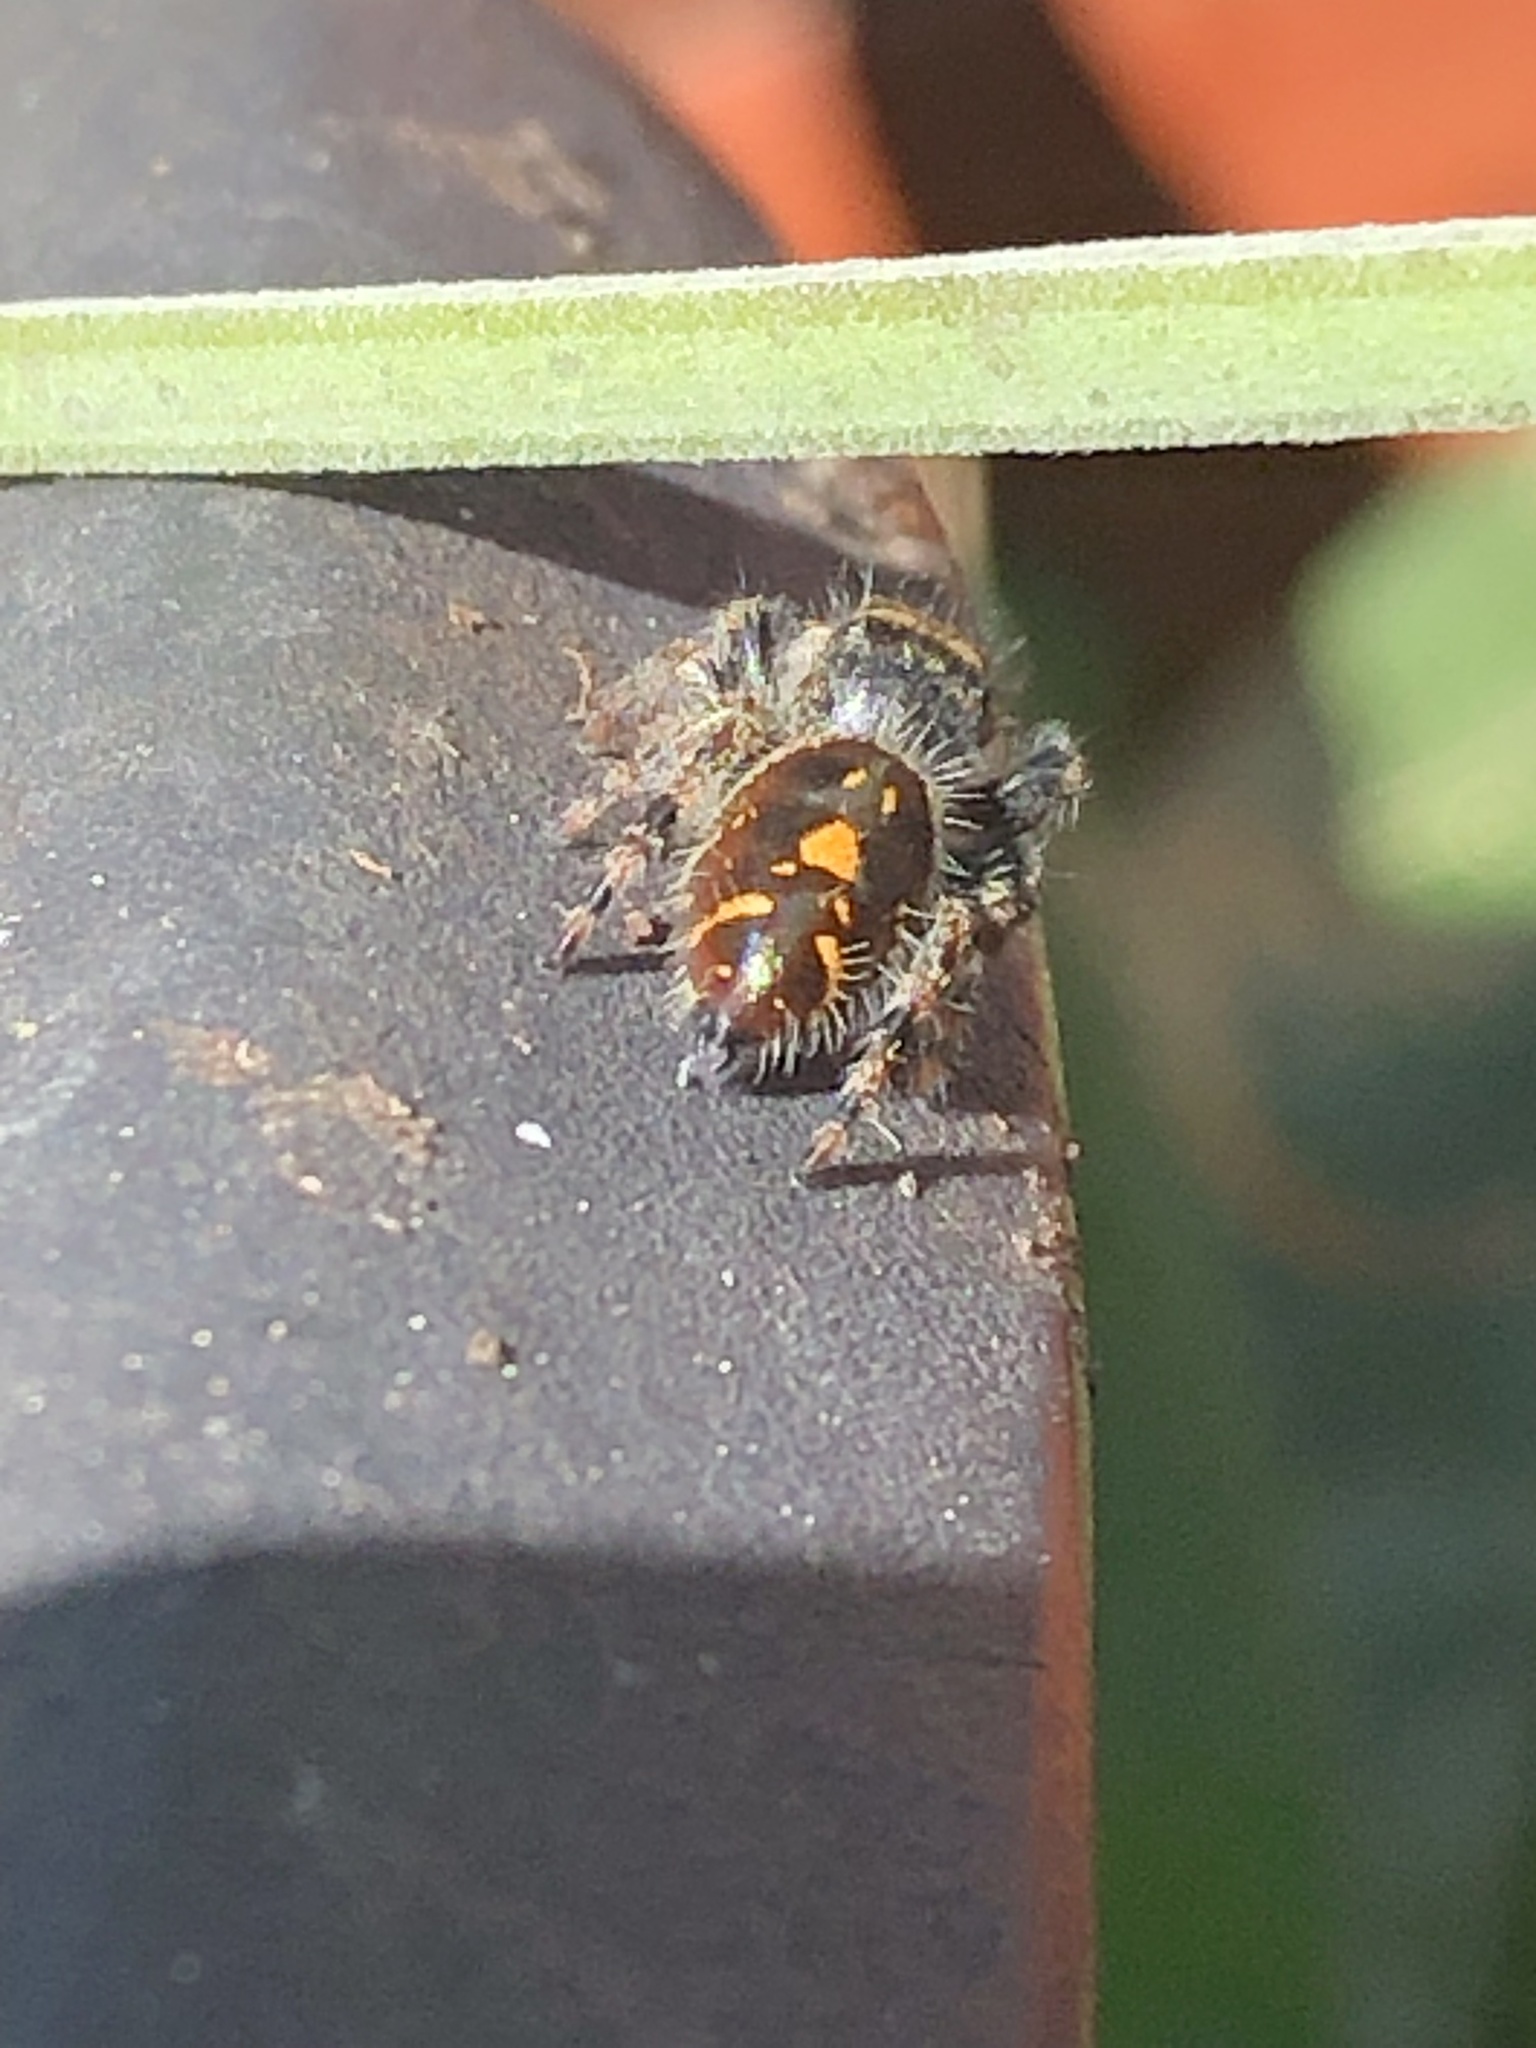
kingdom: Animalia
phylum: Arthropoda
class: Arachnida
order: Araneae
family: Salticidae
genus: Phidippus
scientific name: Phidippus audax
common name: Bold jumper
